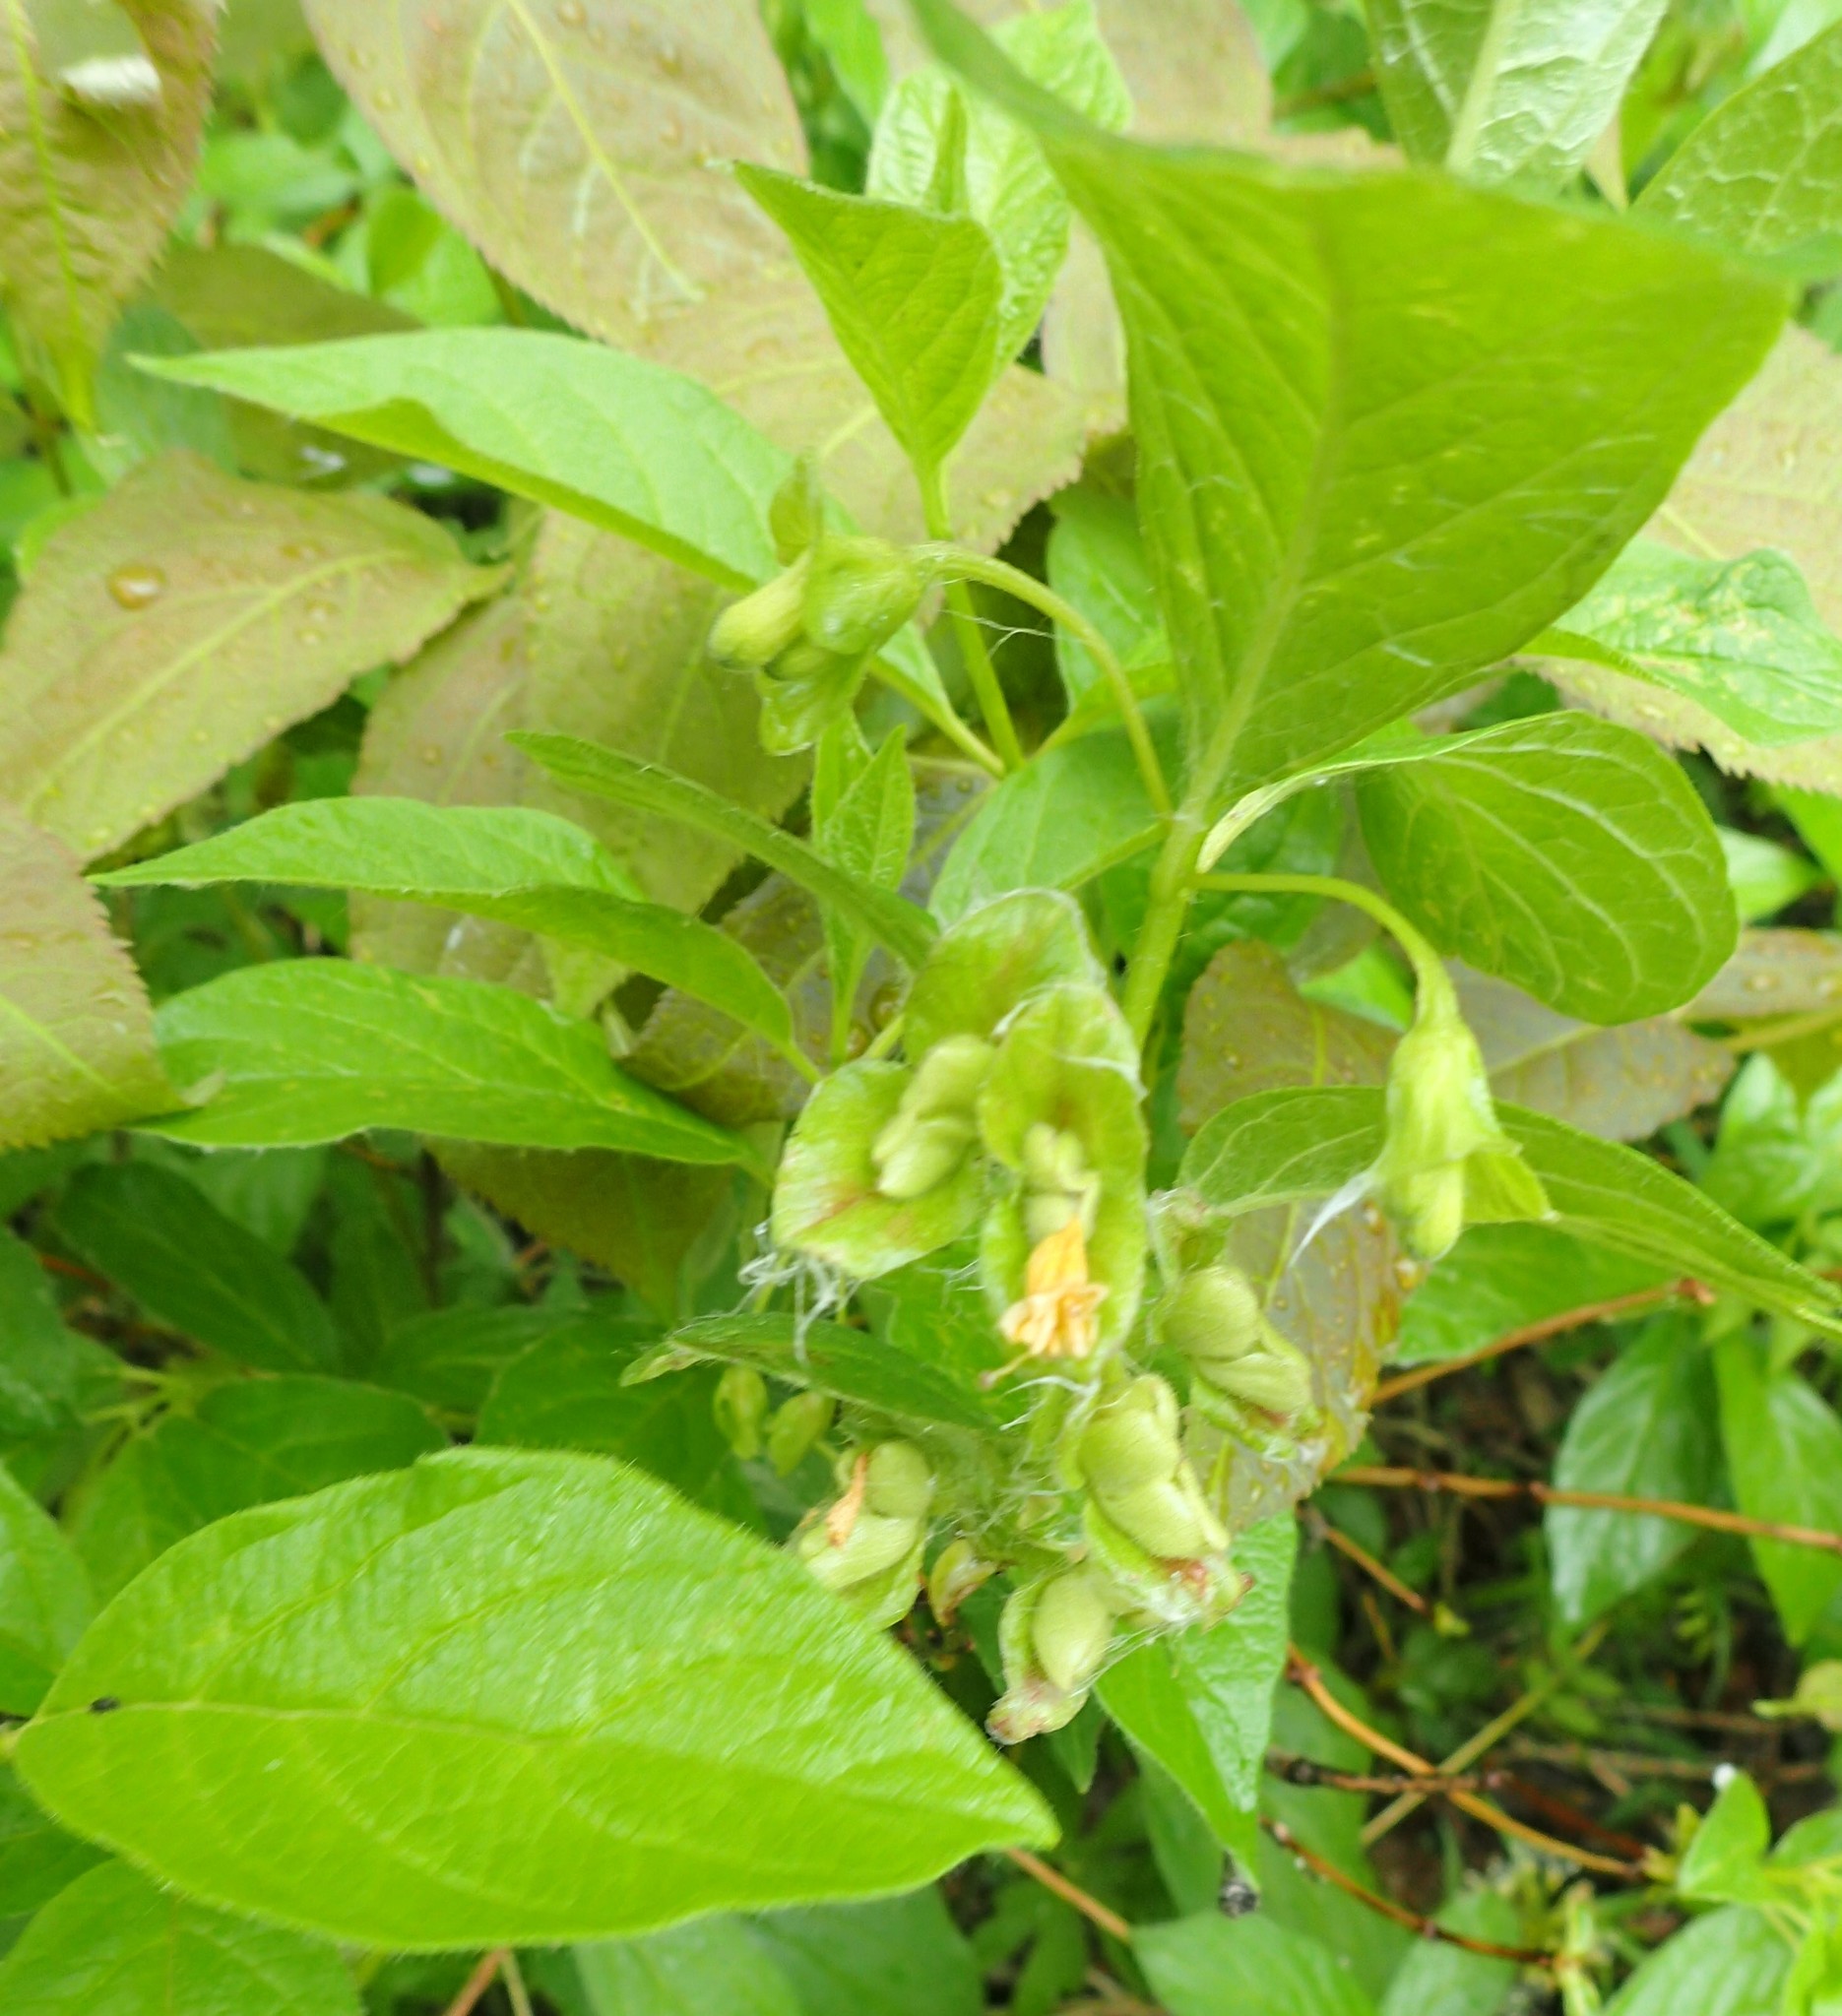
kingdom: Plantae
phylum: Tracheophyta
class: Magnoliopsida
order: Dipsacales
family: Caprifoliaceae
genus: Lonicera
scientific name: Lonicera involucrata
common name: Californian honeysuckle
